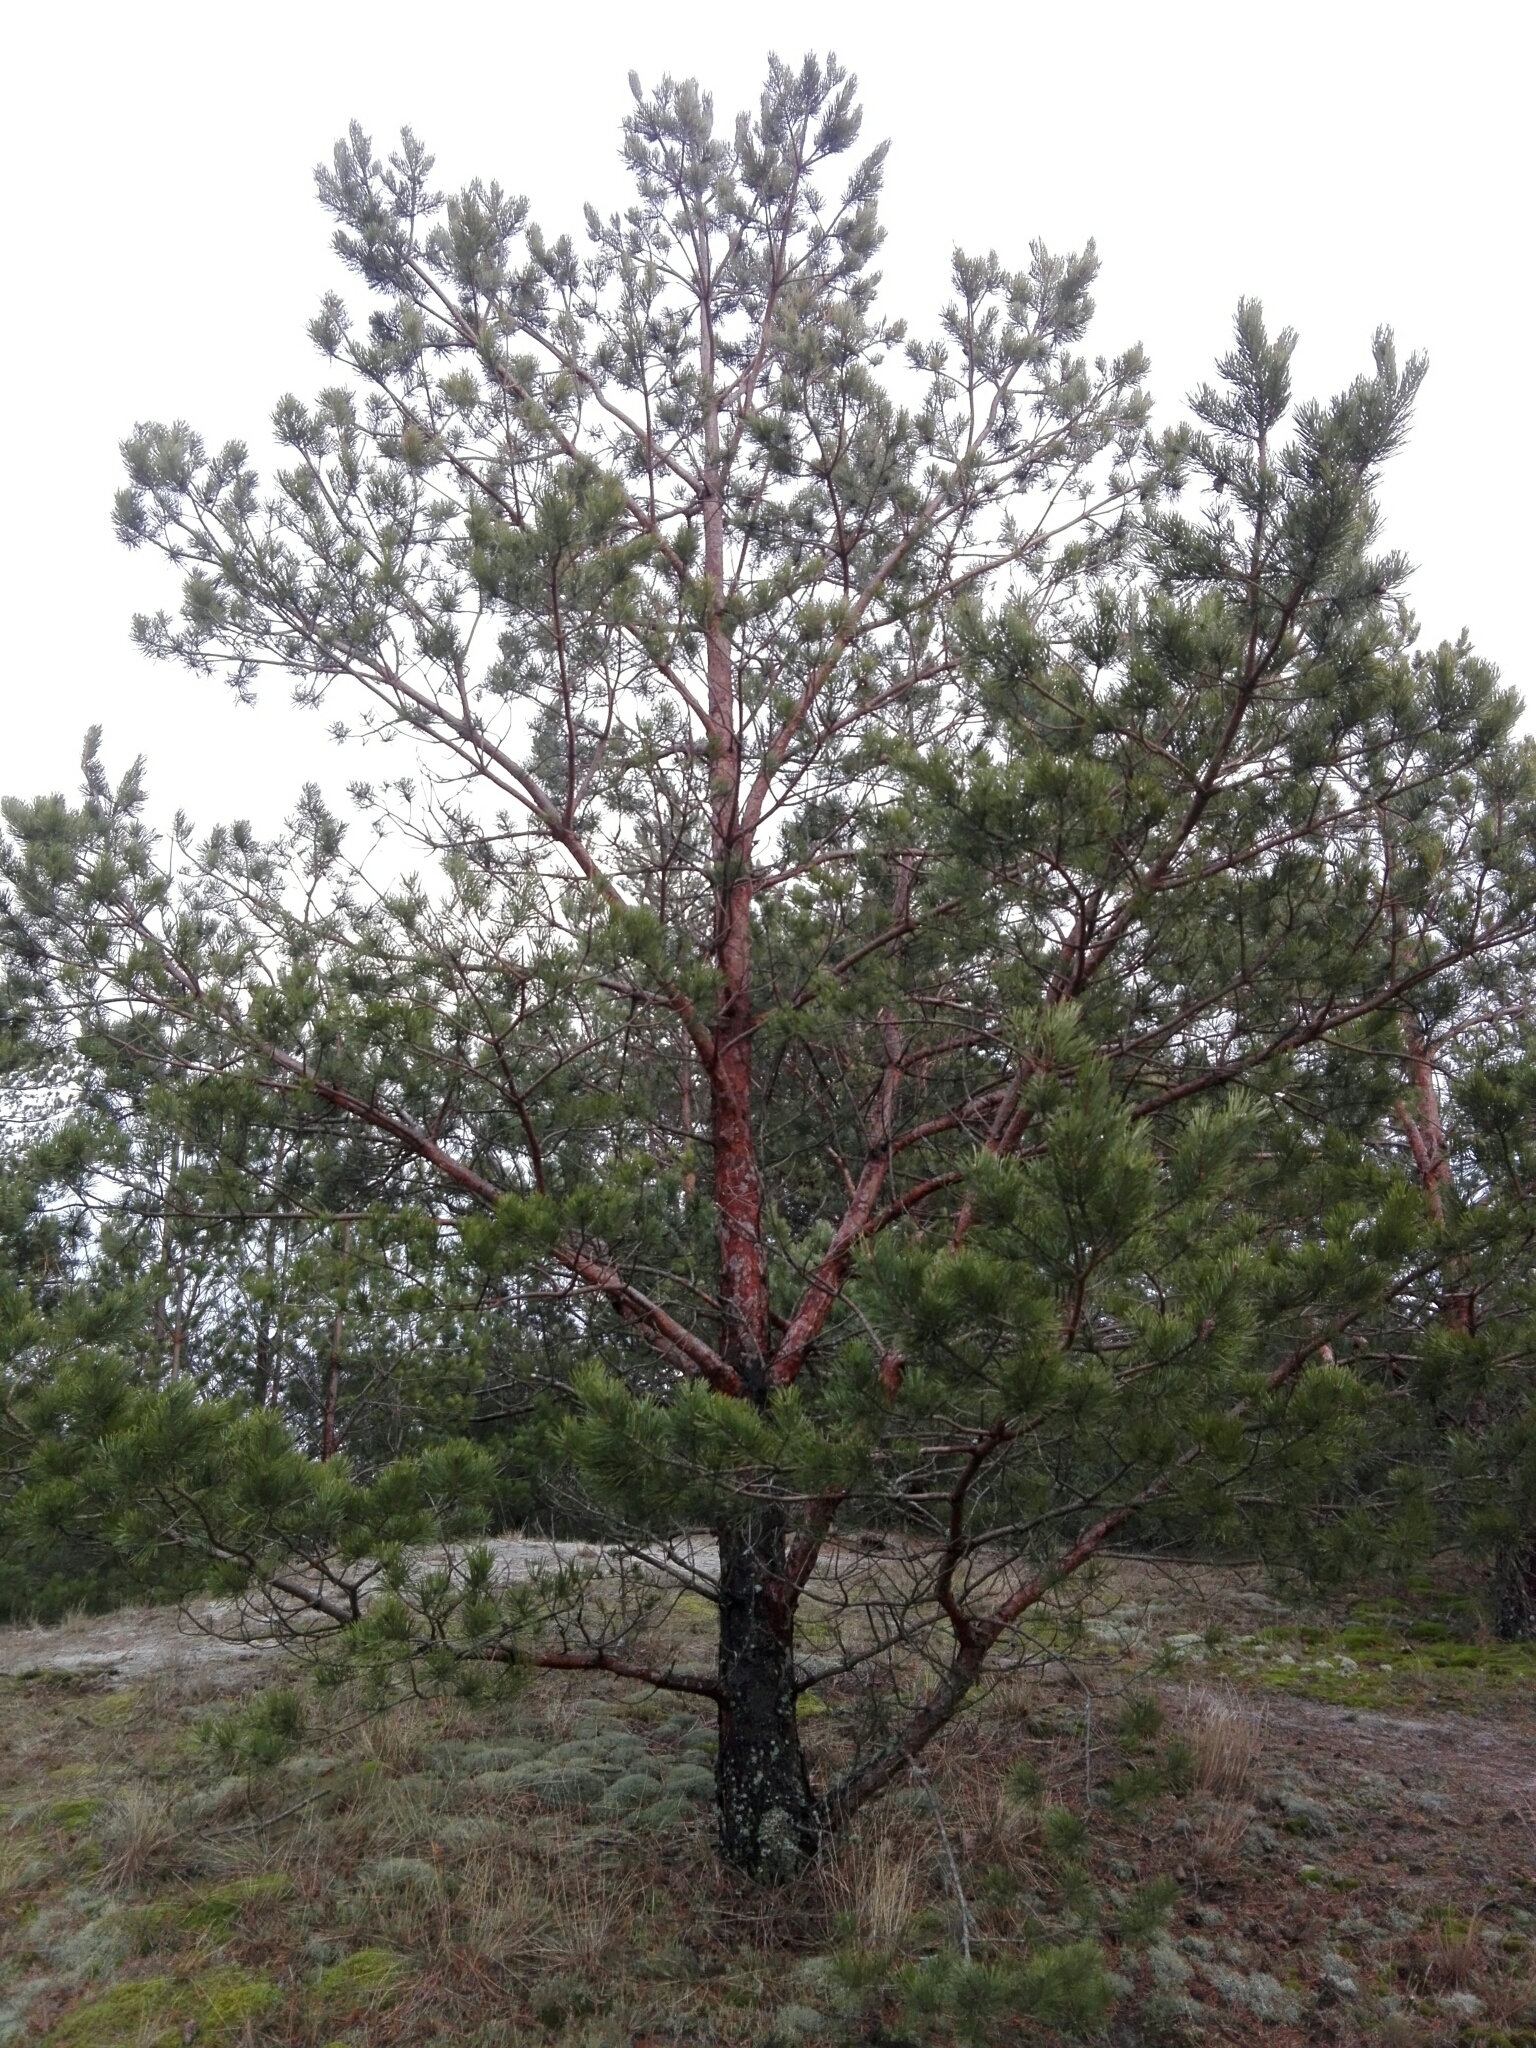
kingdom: Plantae
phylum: Tracheophyta
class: Pinopsida
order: Pinales
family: Pinaceae
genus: Pinus
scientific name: Pinus sylvestris
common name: Scots pine
